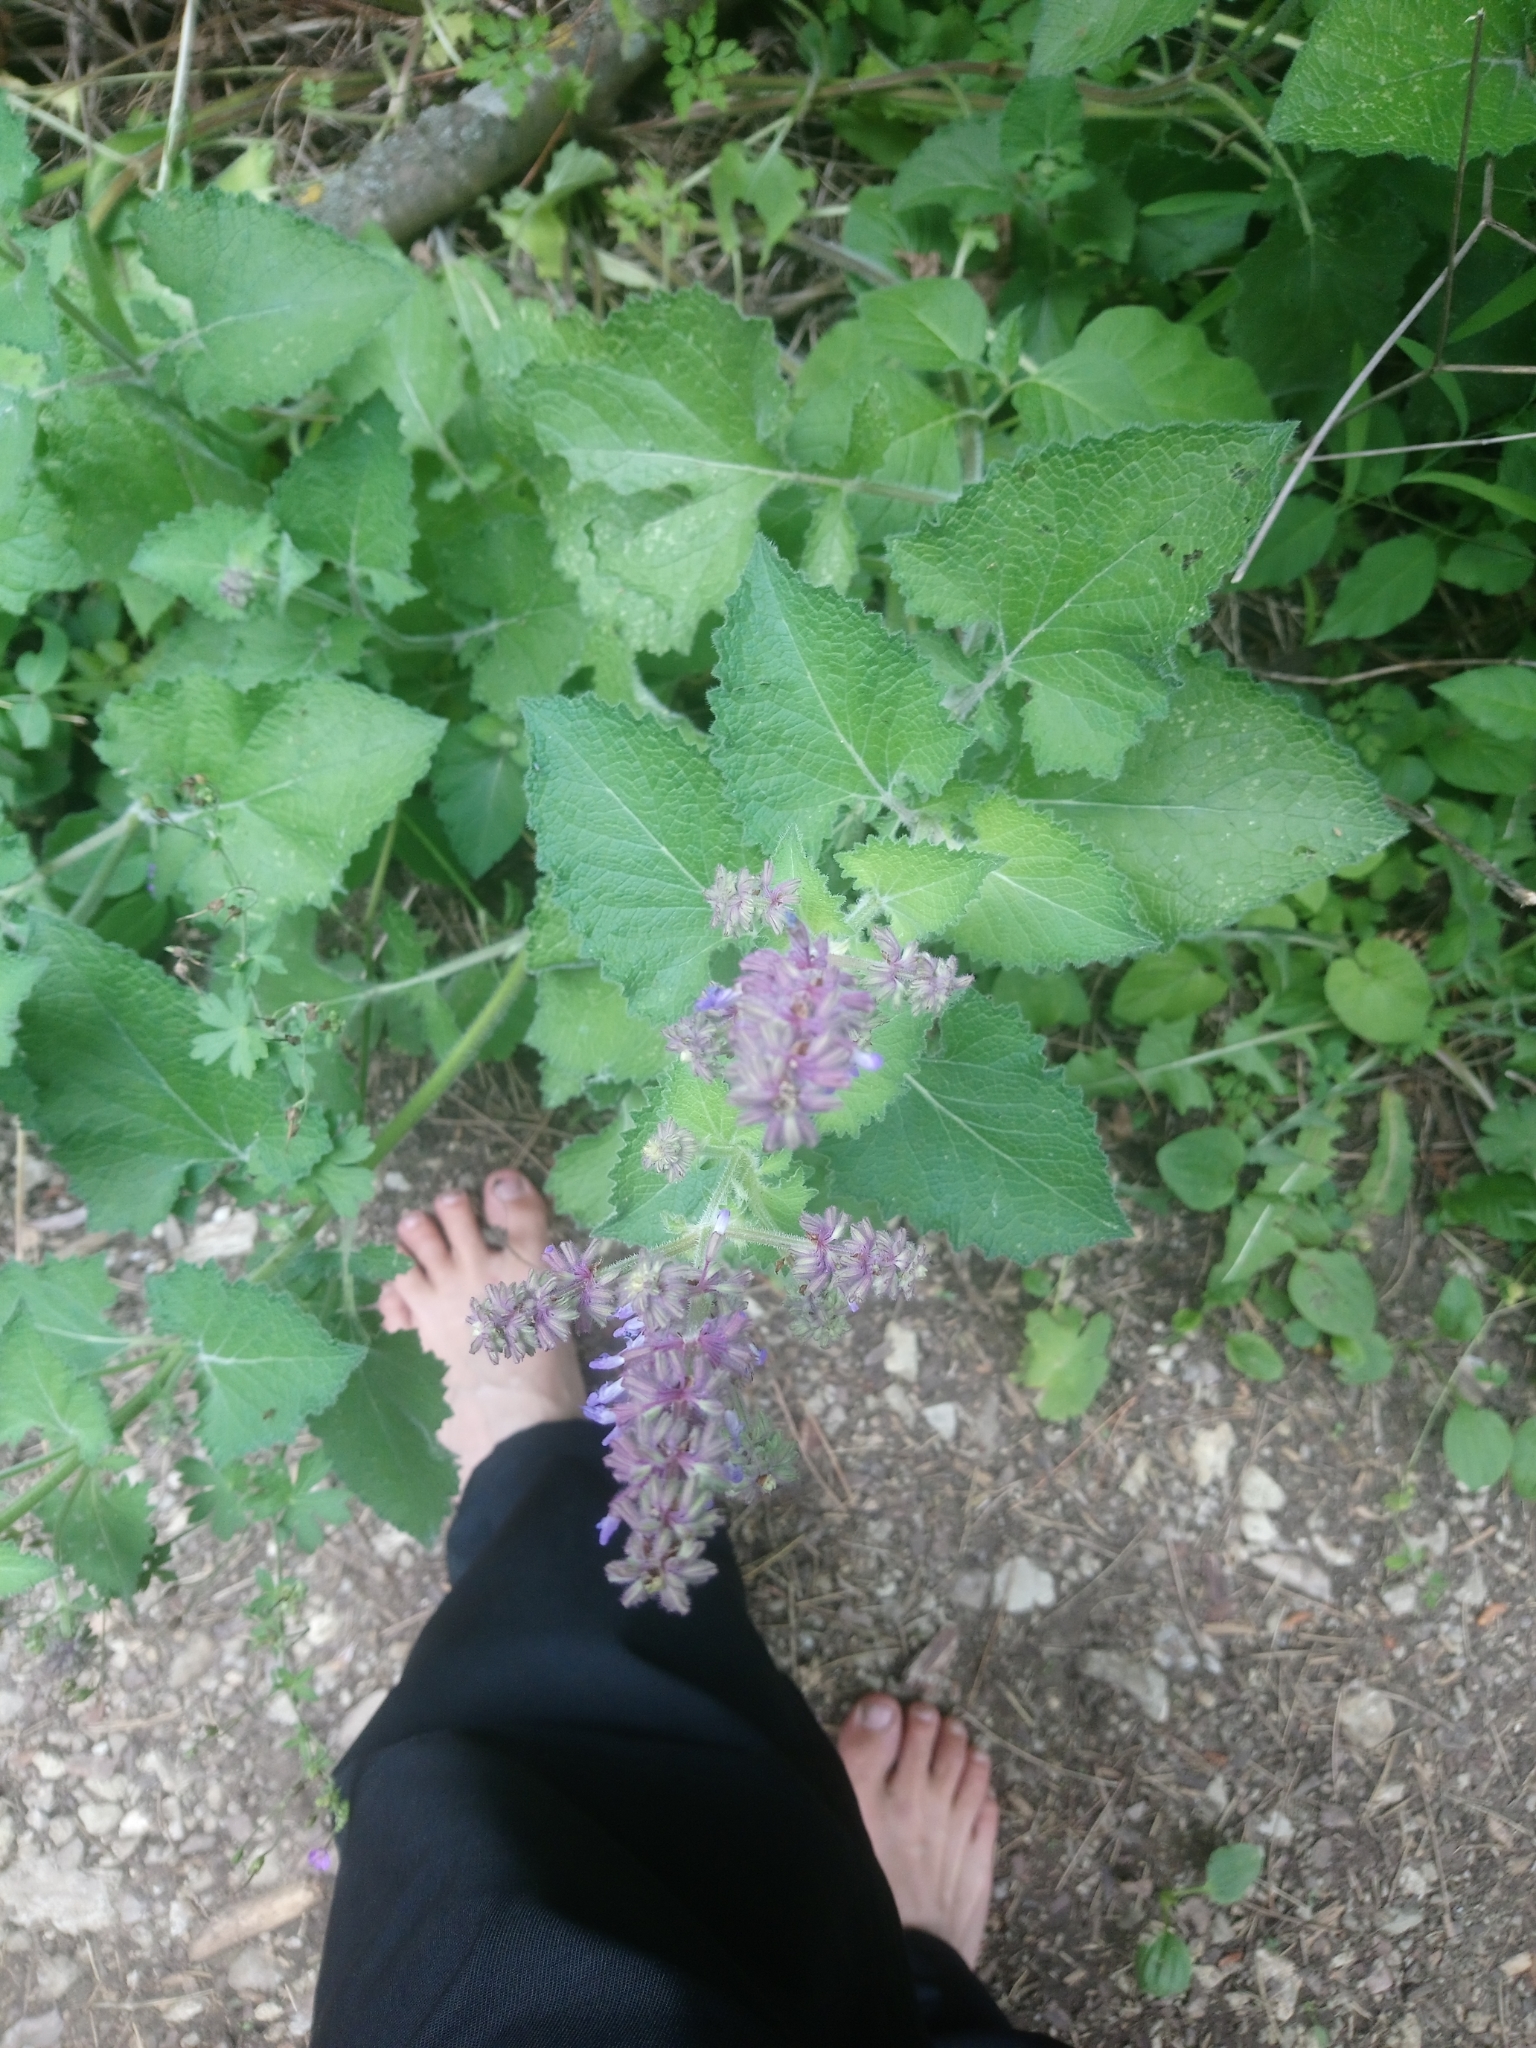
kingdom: Plantae
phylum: Tracheophyta
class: Magnoliopsida
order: Lamiales
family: Lamiaceae
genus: Salvia
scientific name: Salvia verticillata
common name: Whorled clary
